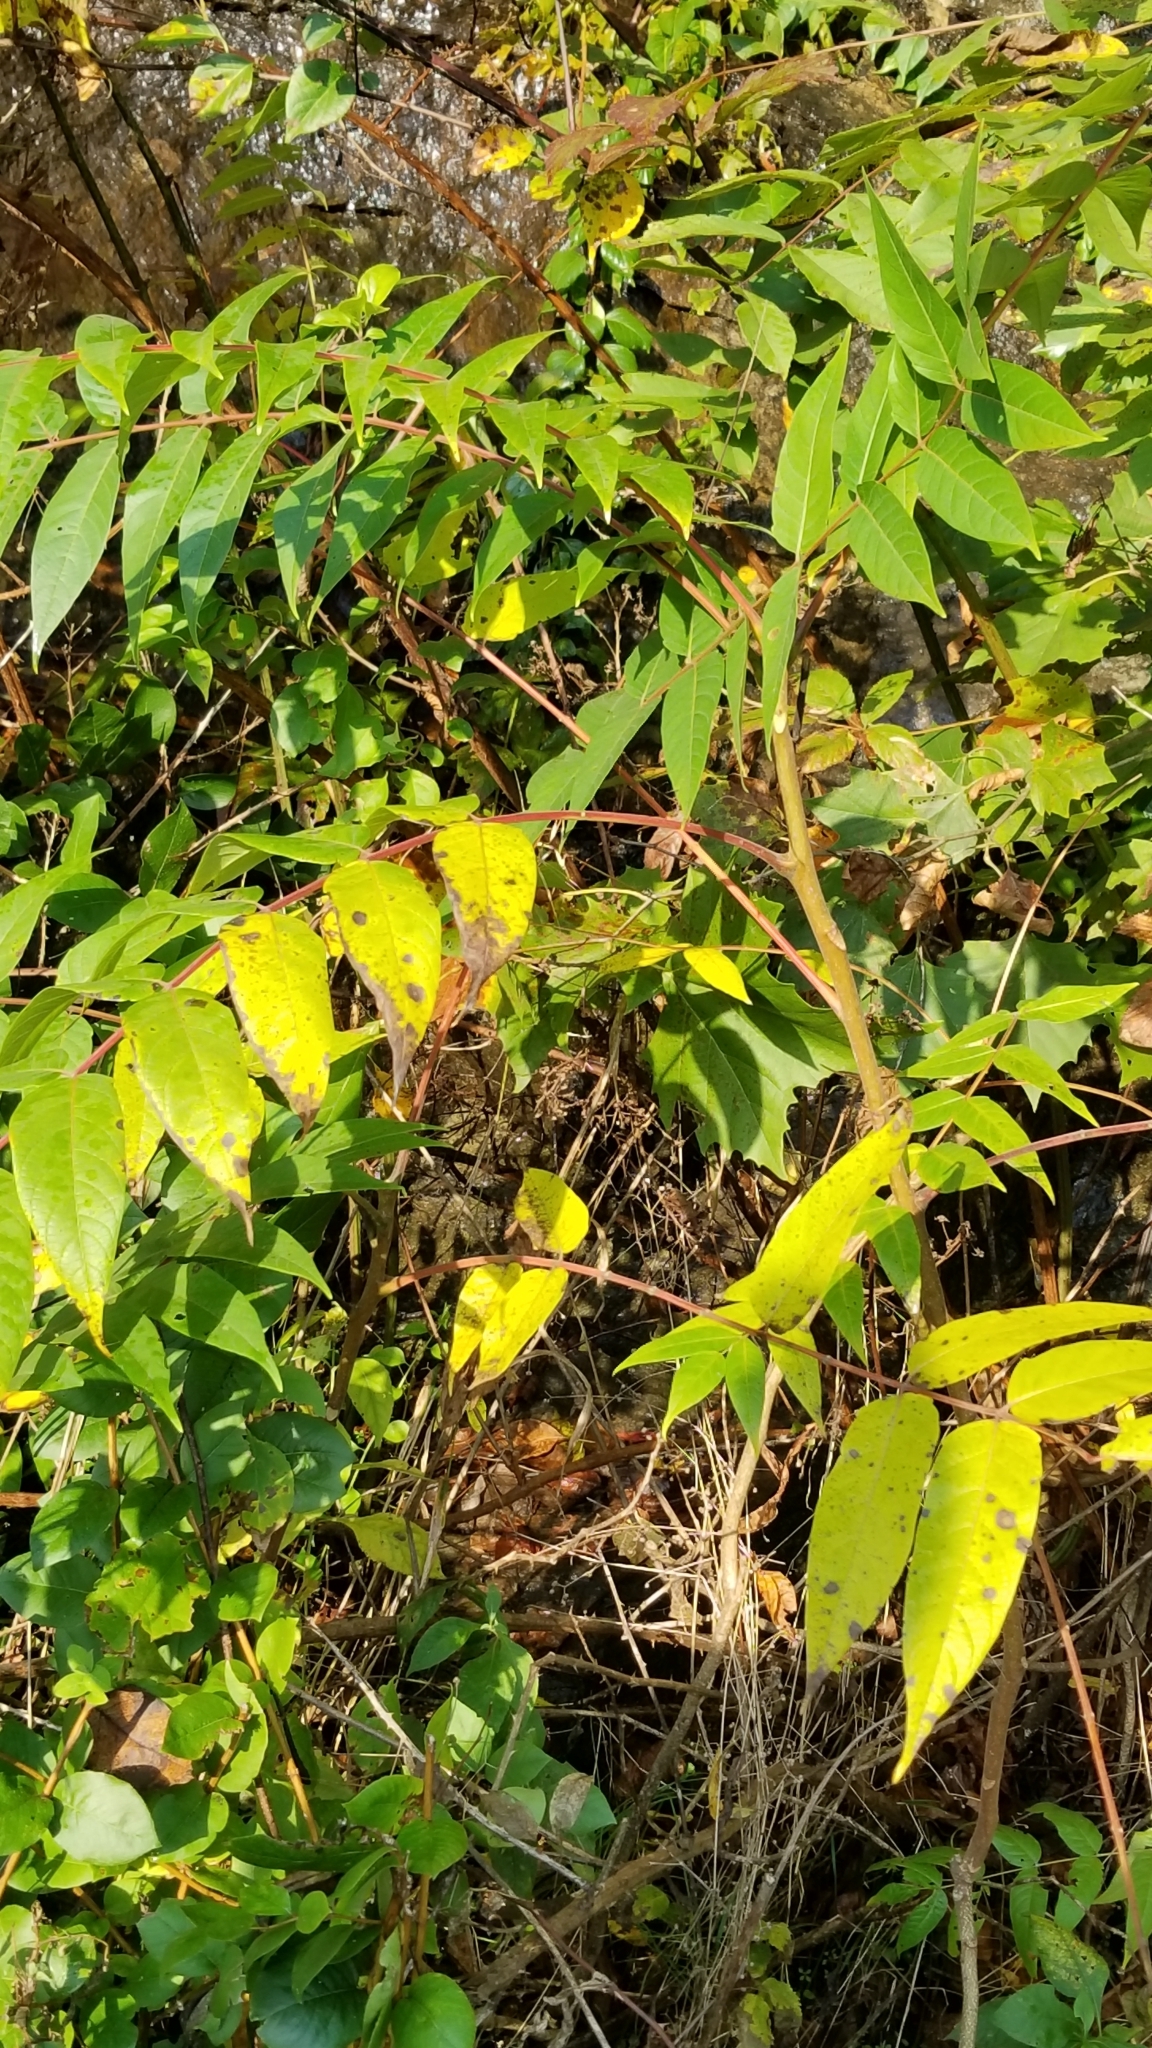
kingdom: Plantae
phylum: Tracheophyta
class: Magnoliopsida
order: Sapindales
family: Simaroubaceae
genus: Ailanthus
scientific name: Ailanthus altissima
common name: Tree-of-heaven
